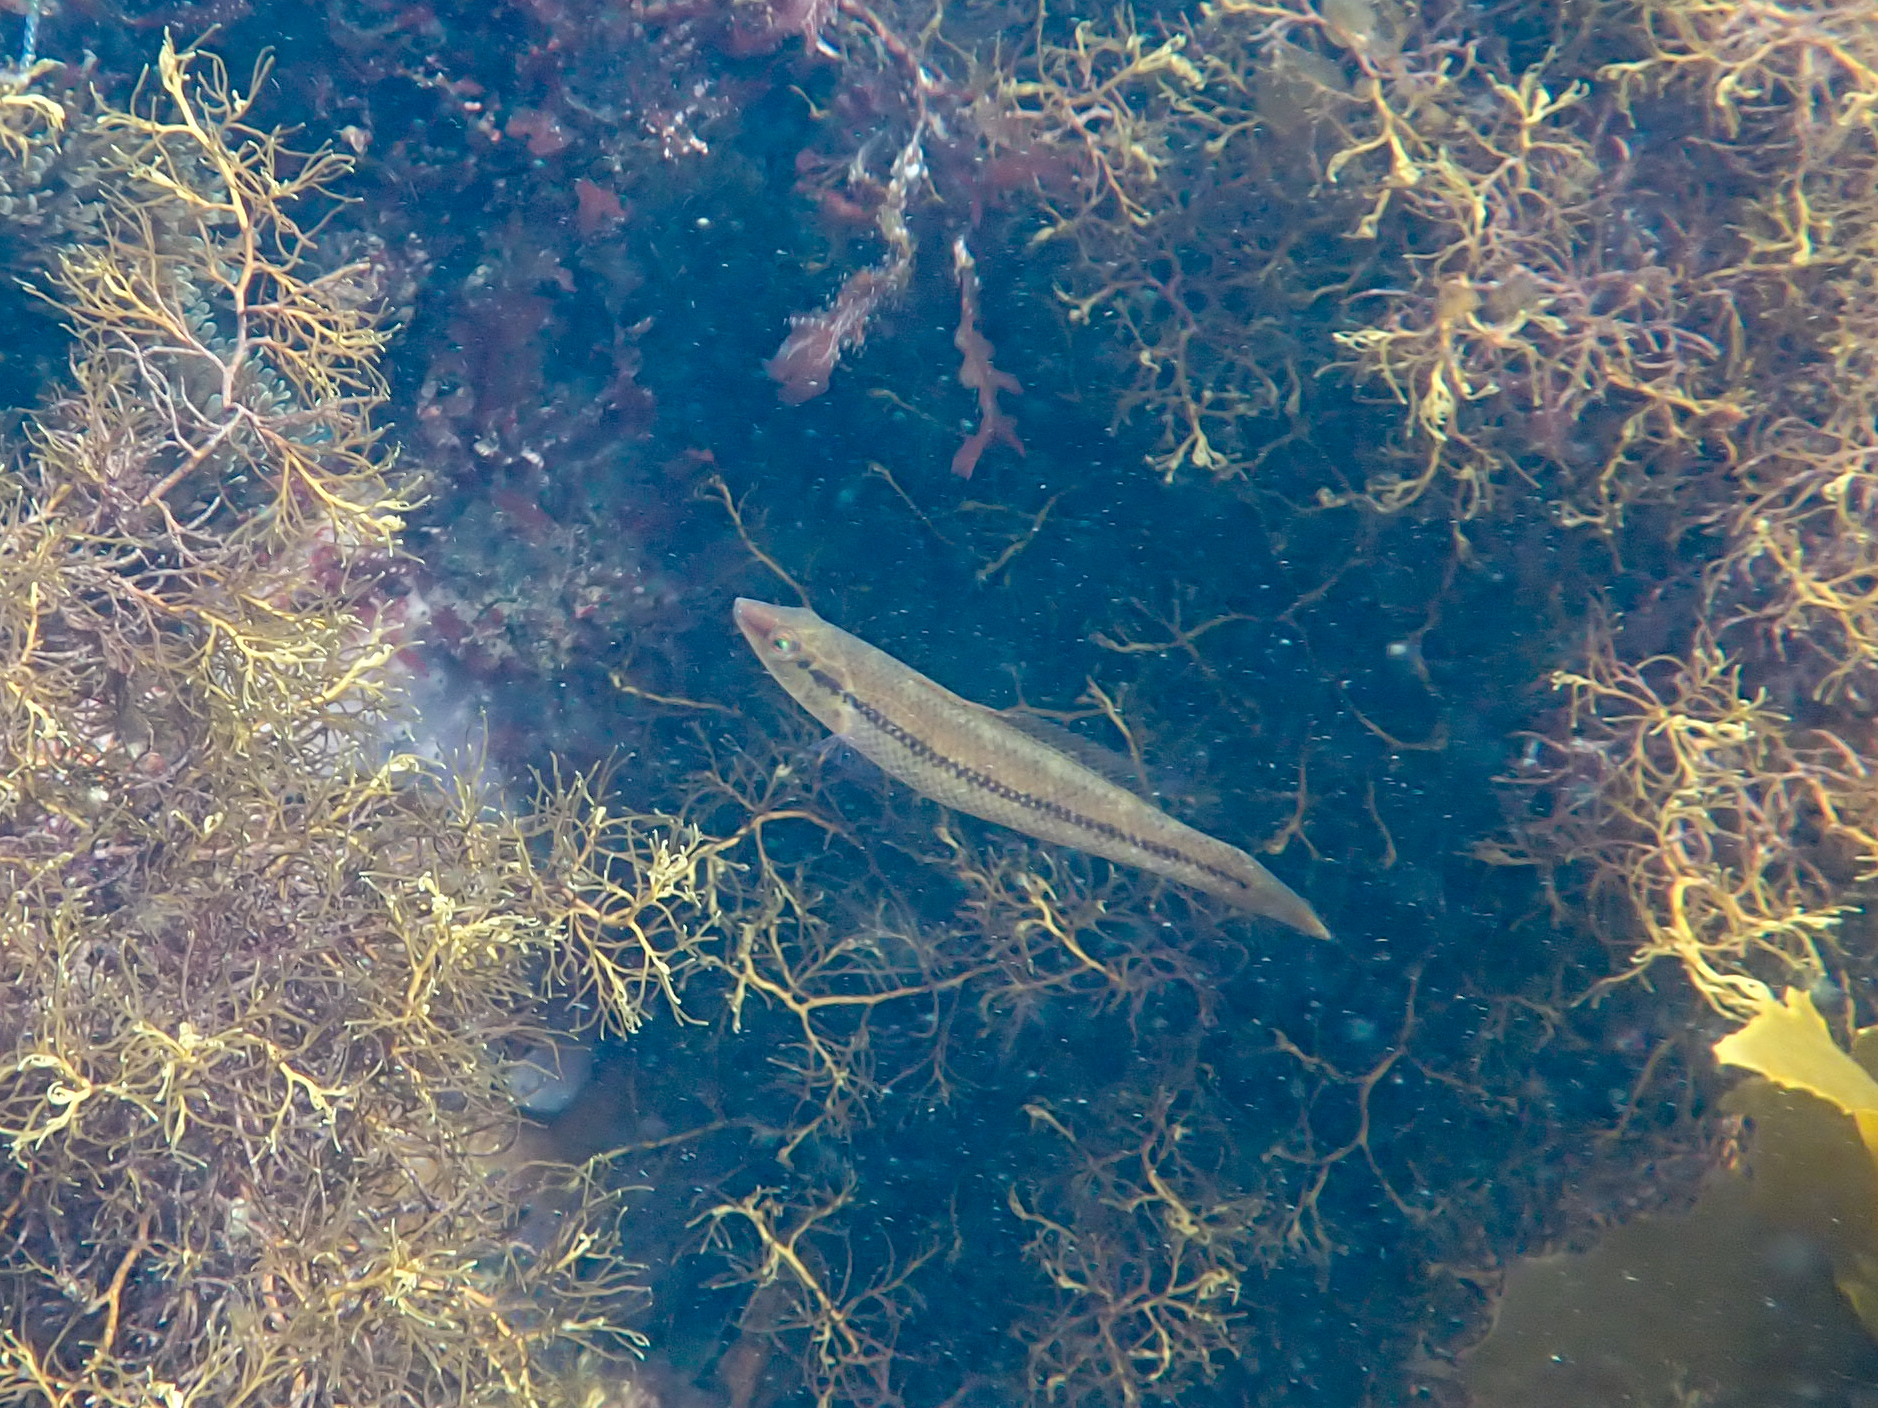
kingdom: Animalia
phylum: Chordata
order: Perciformes
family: Odacidae
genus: Neoodax
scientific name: Neoodax balteatus
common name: Ground mullet
